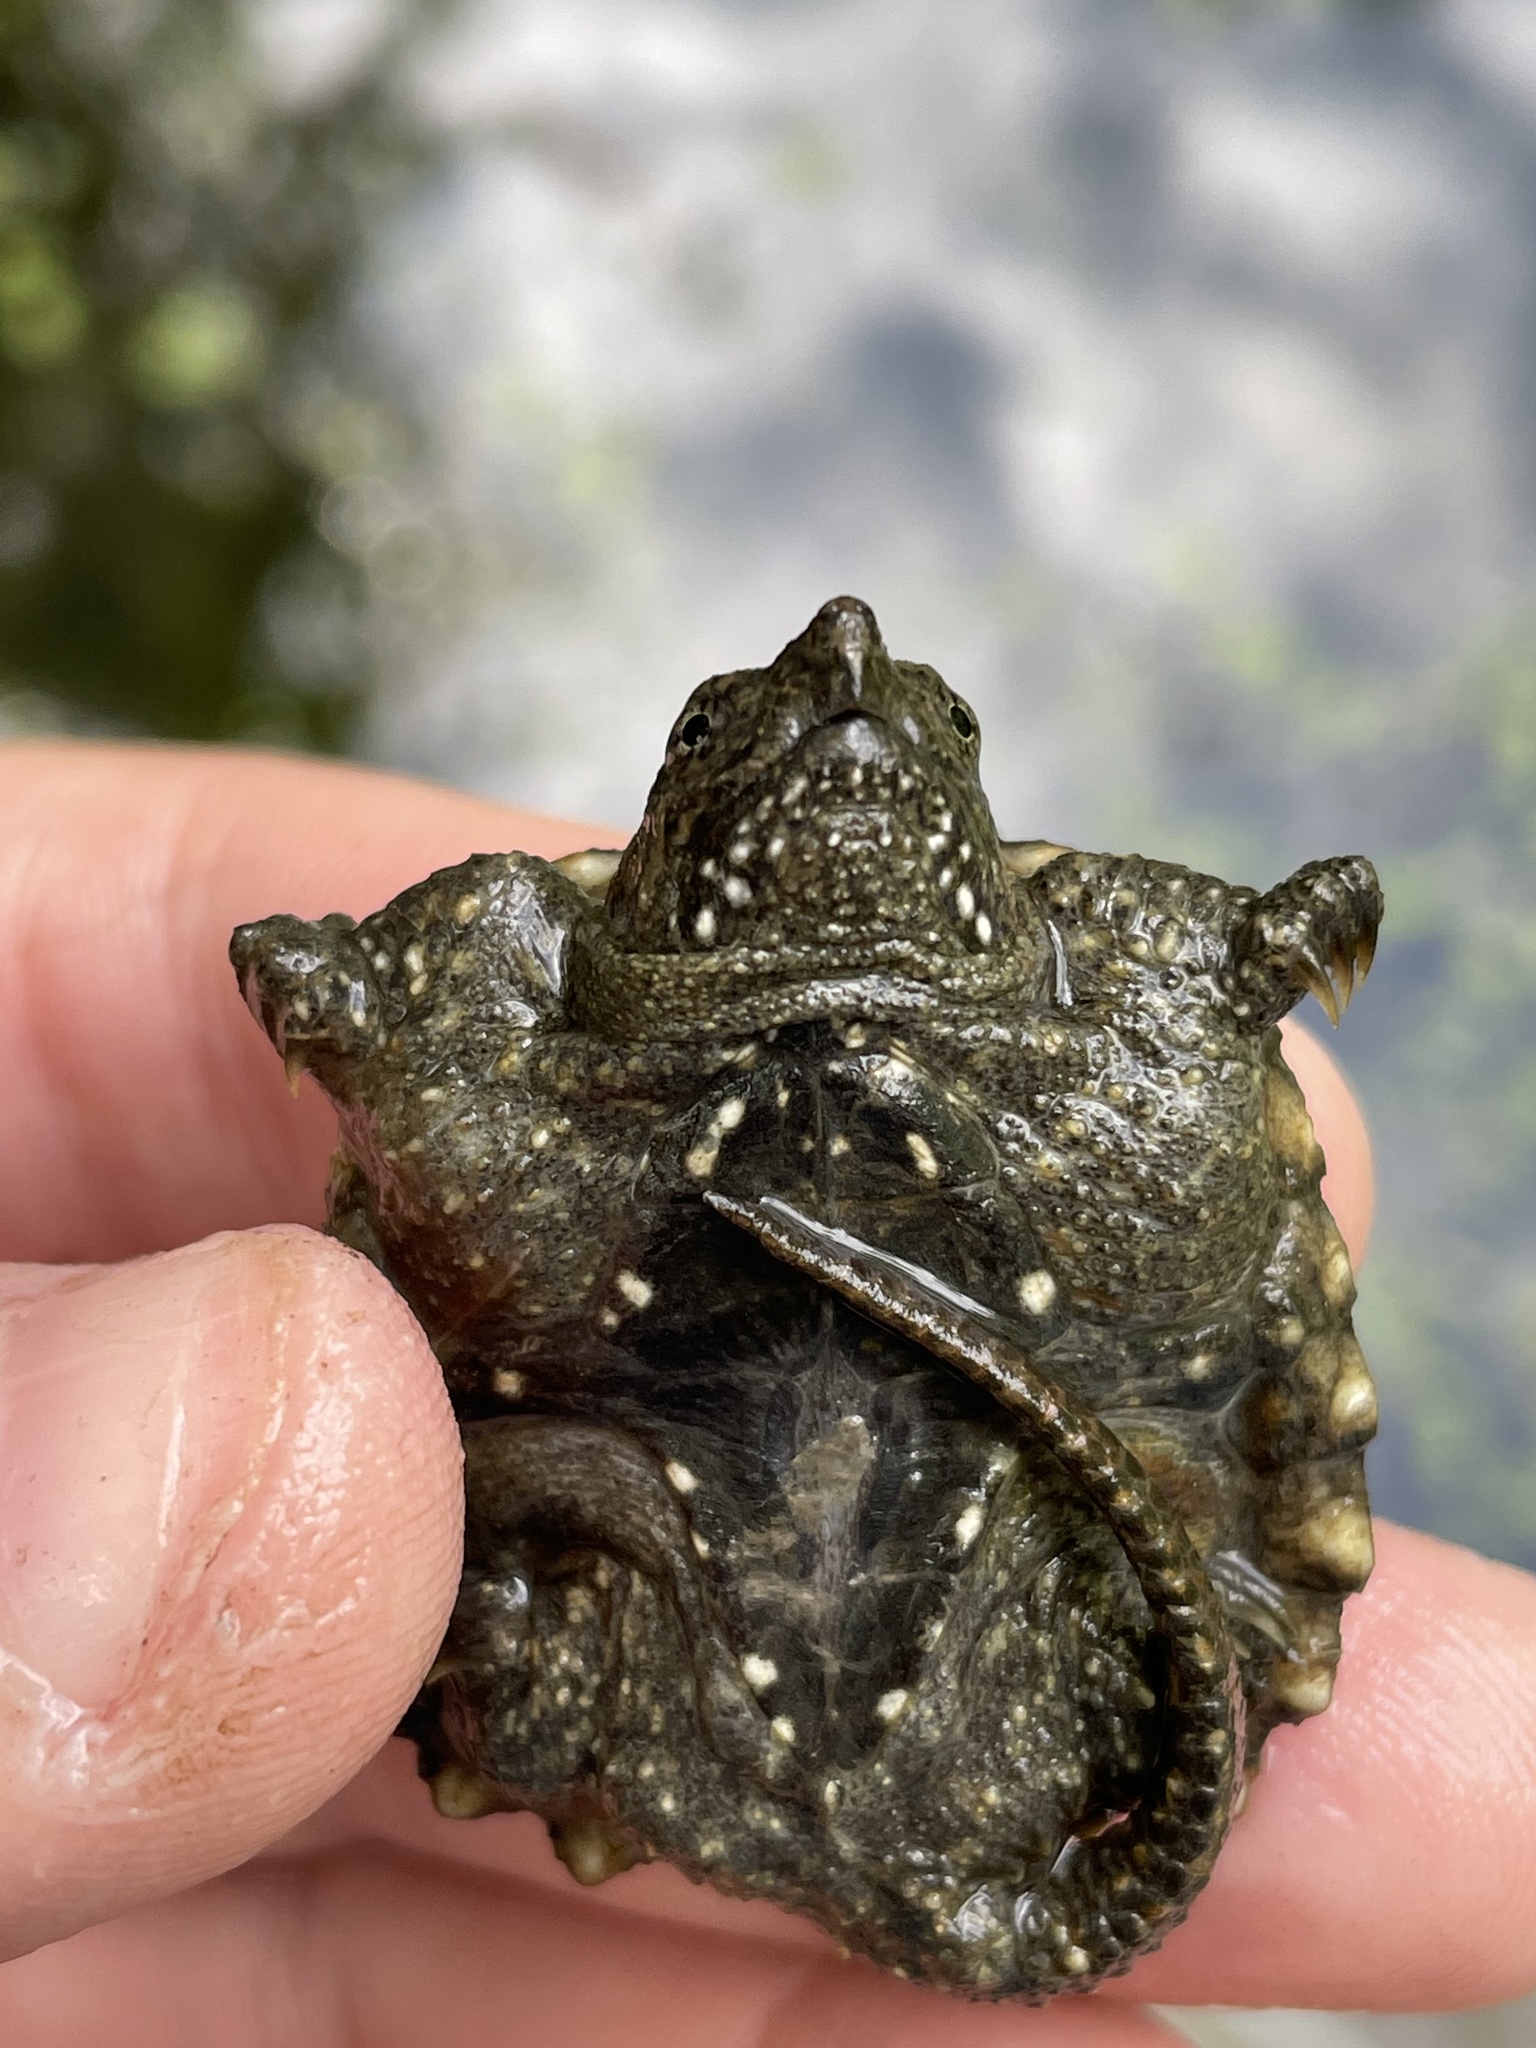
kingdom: Animalia
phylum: Chordata
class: Testudines
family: Chelydridae
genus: Chelydra
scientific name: Chelydra serpentina
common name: Common snapping turtle
